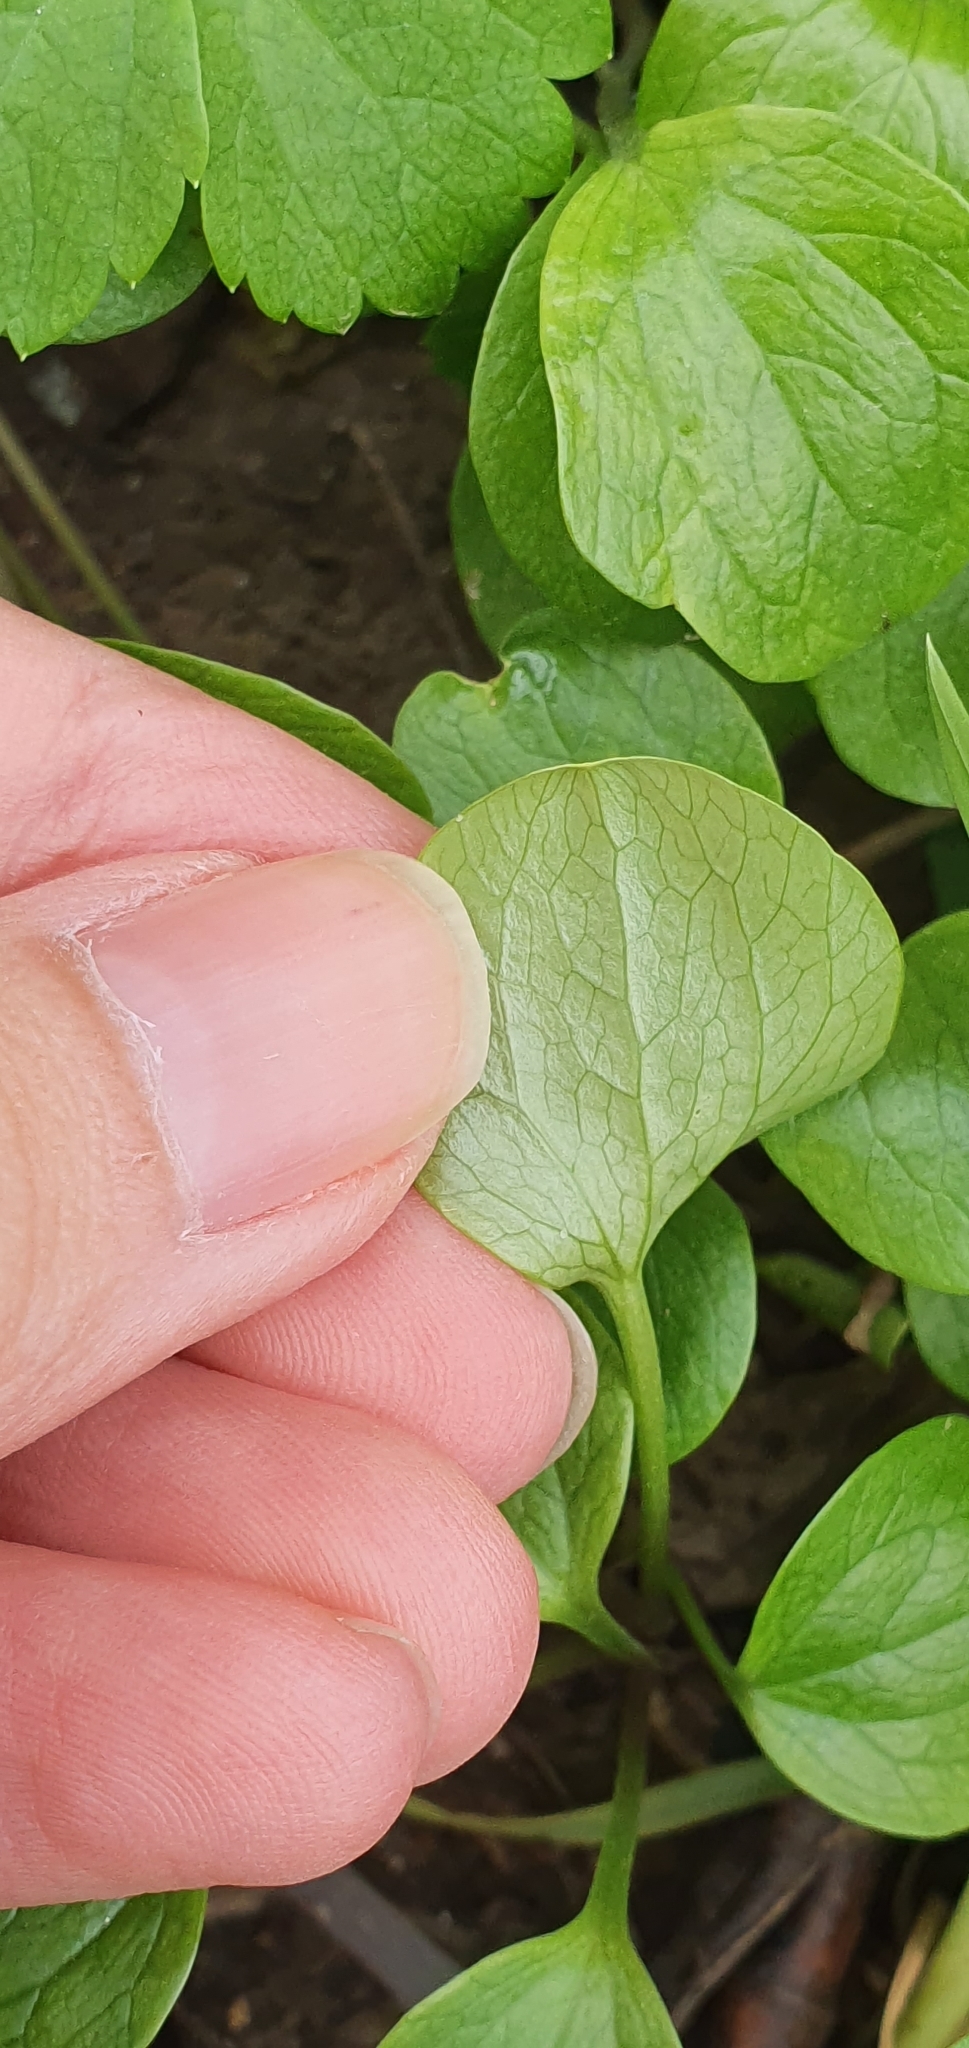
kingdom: Plantae
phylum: Tracheophyta
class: Magnoliopsida
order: Apiales
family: Apiaceae
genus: Smyrnium
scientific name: Smyrnium olusatrum
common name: Alexanders
